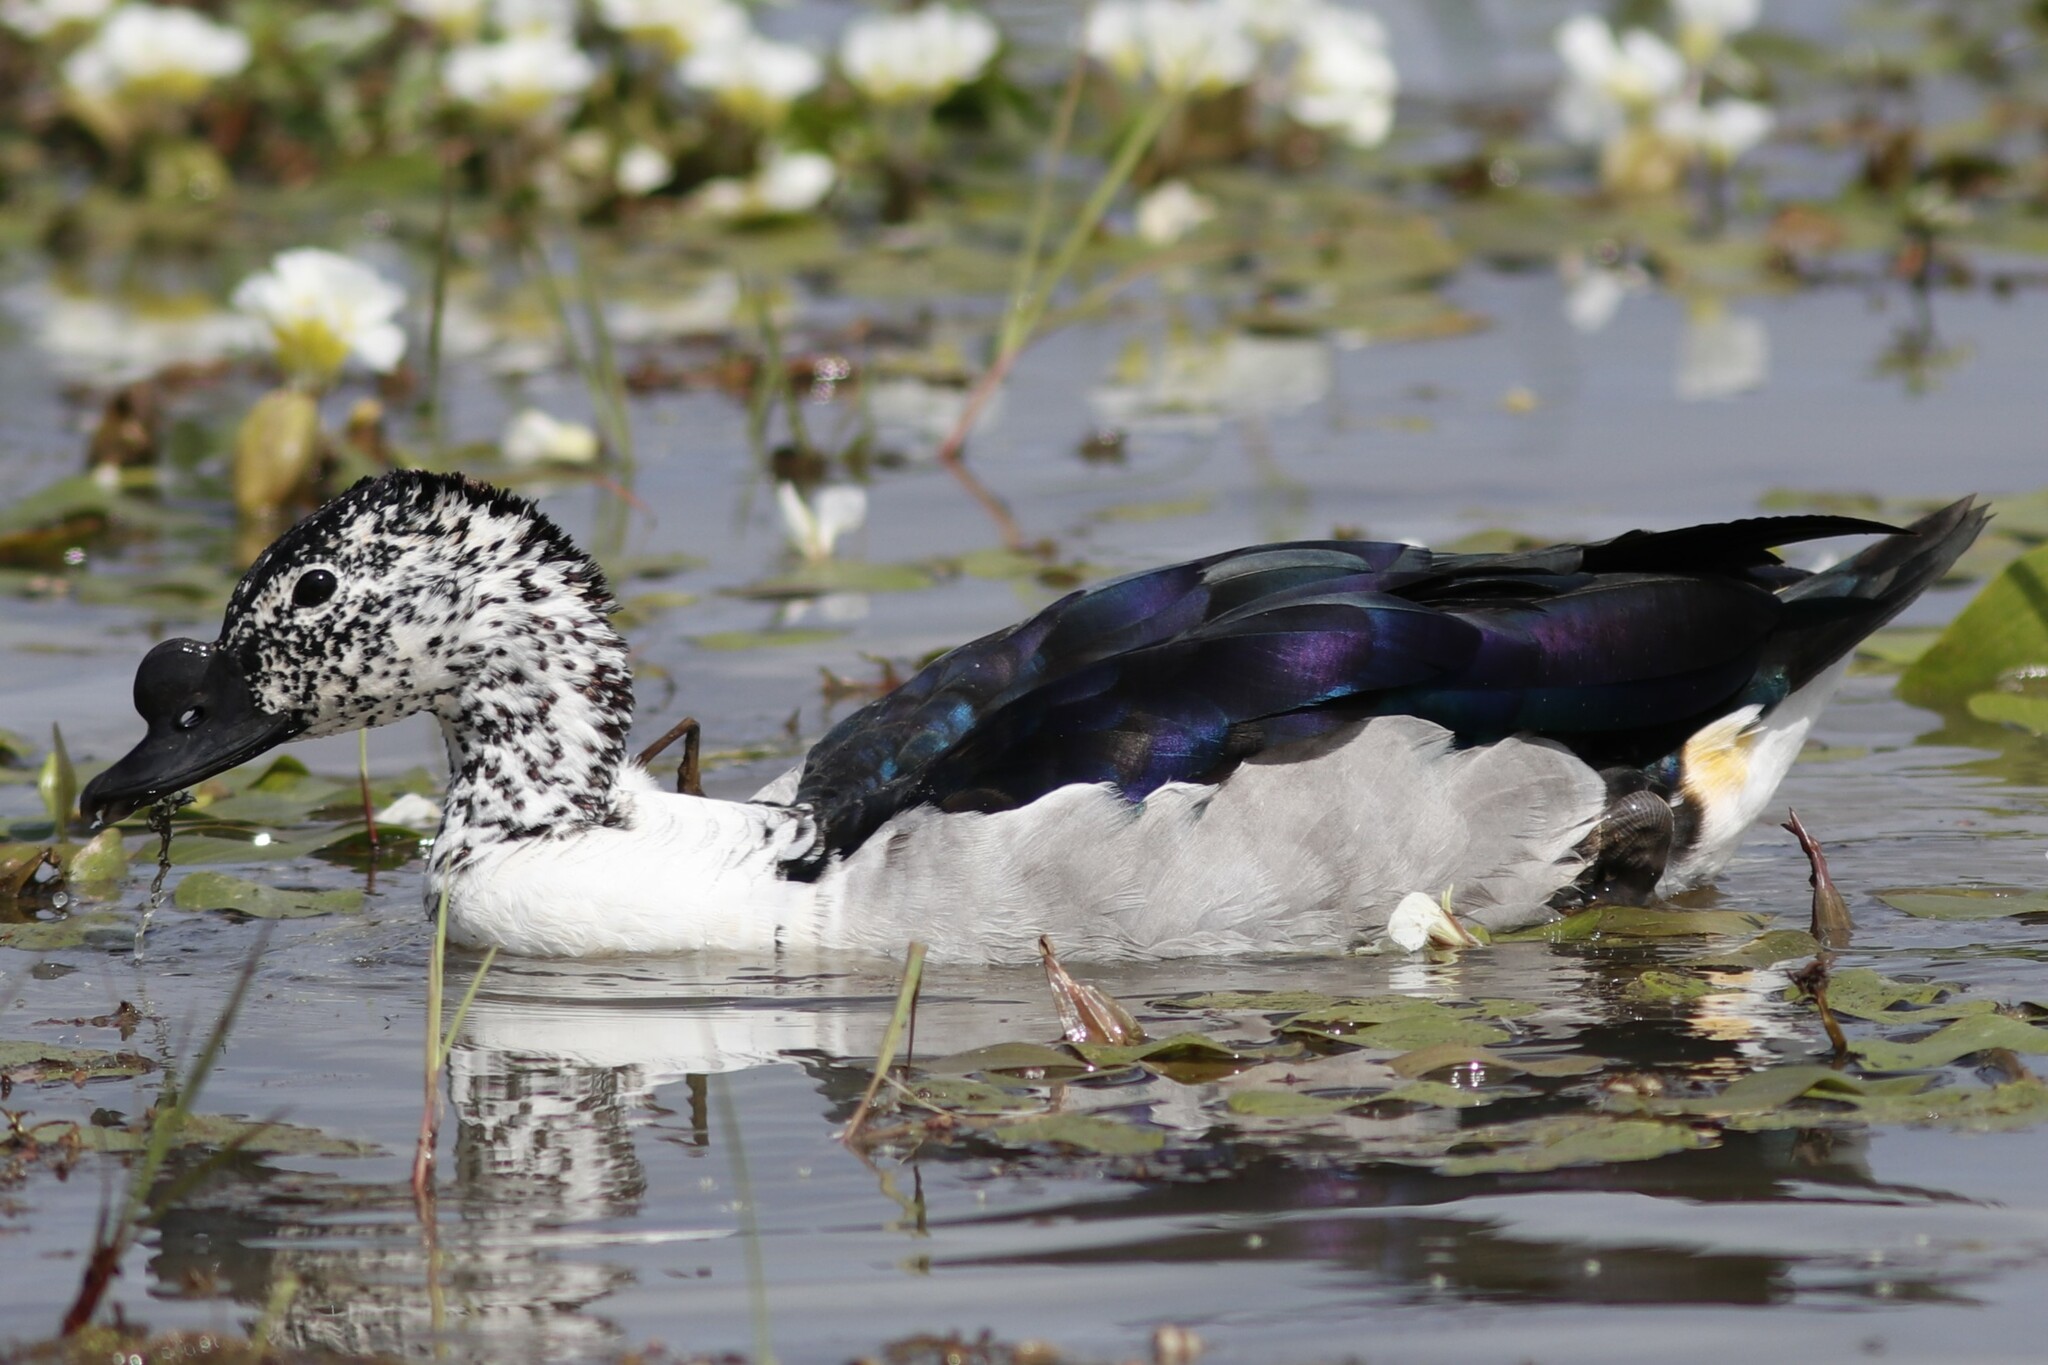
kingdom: Animalia
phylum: Chordata
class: Aves
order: Anseriformes
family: Anatidae
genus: Sarkidiornis
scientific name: Sarkidiornis melanotos
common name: Comb duck
